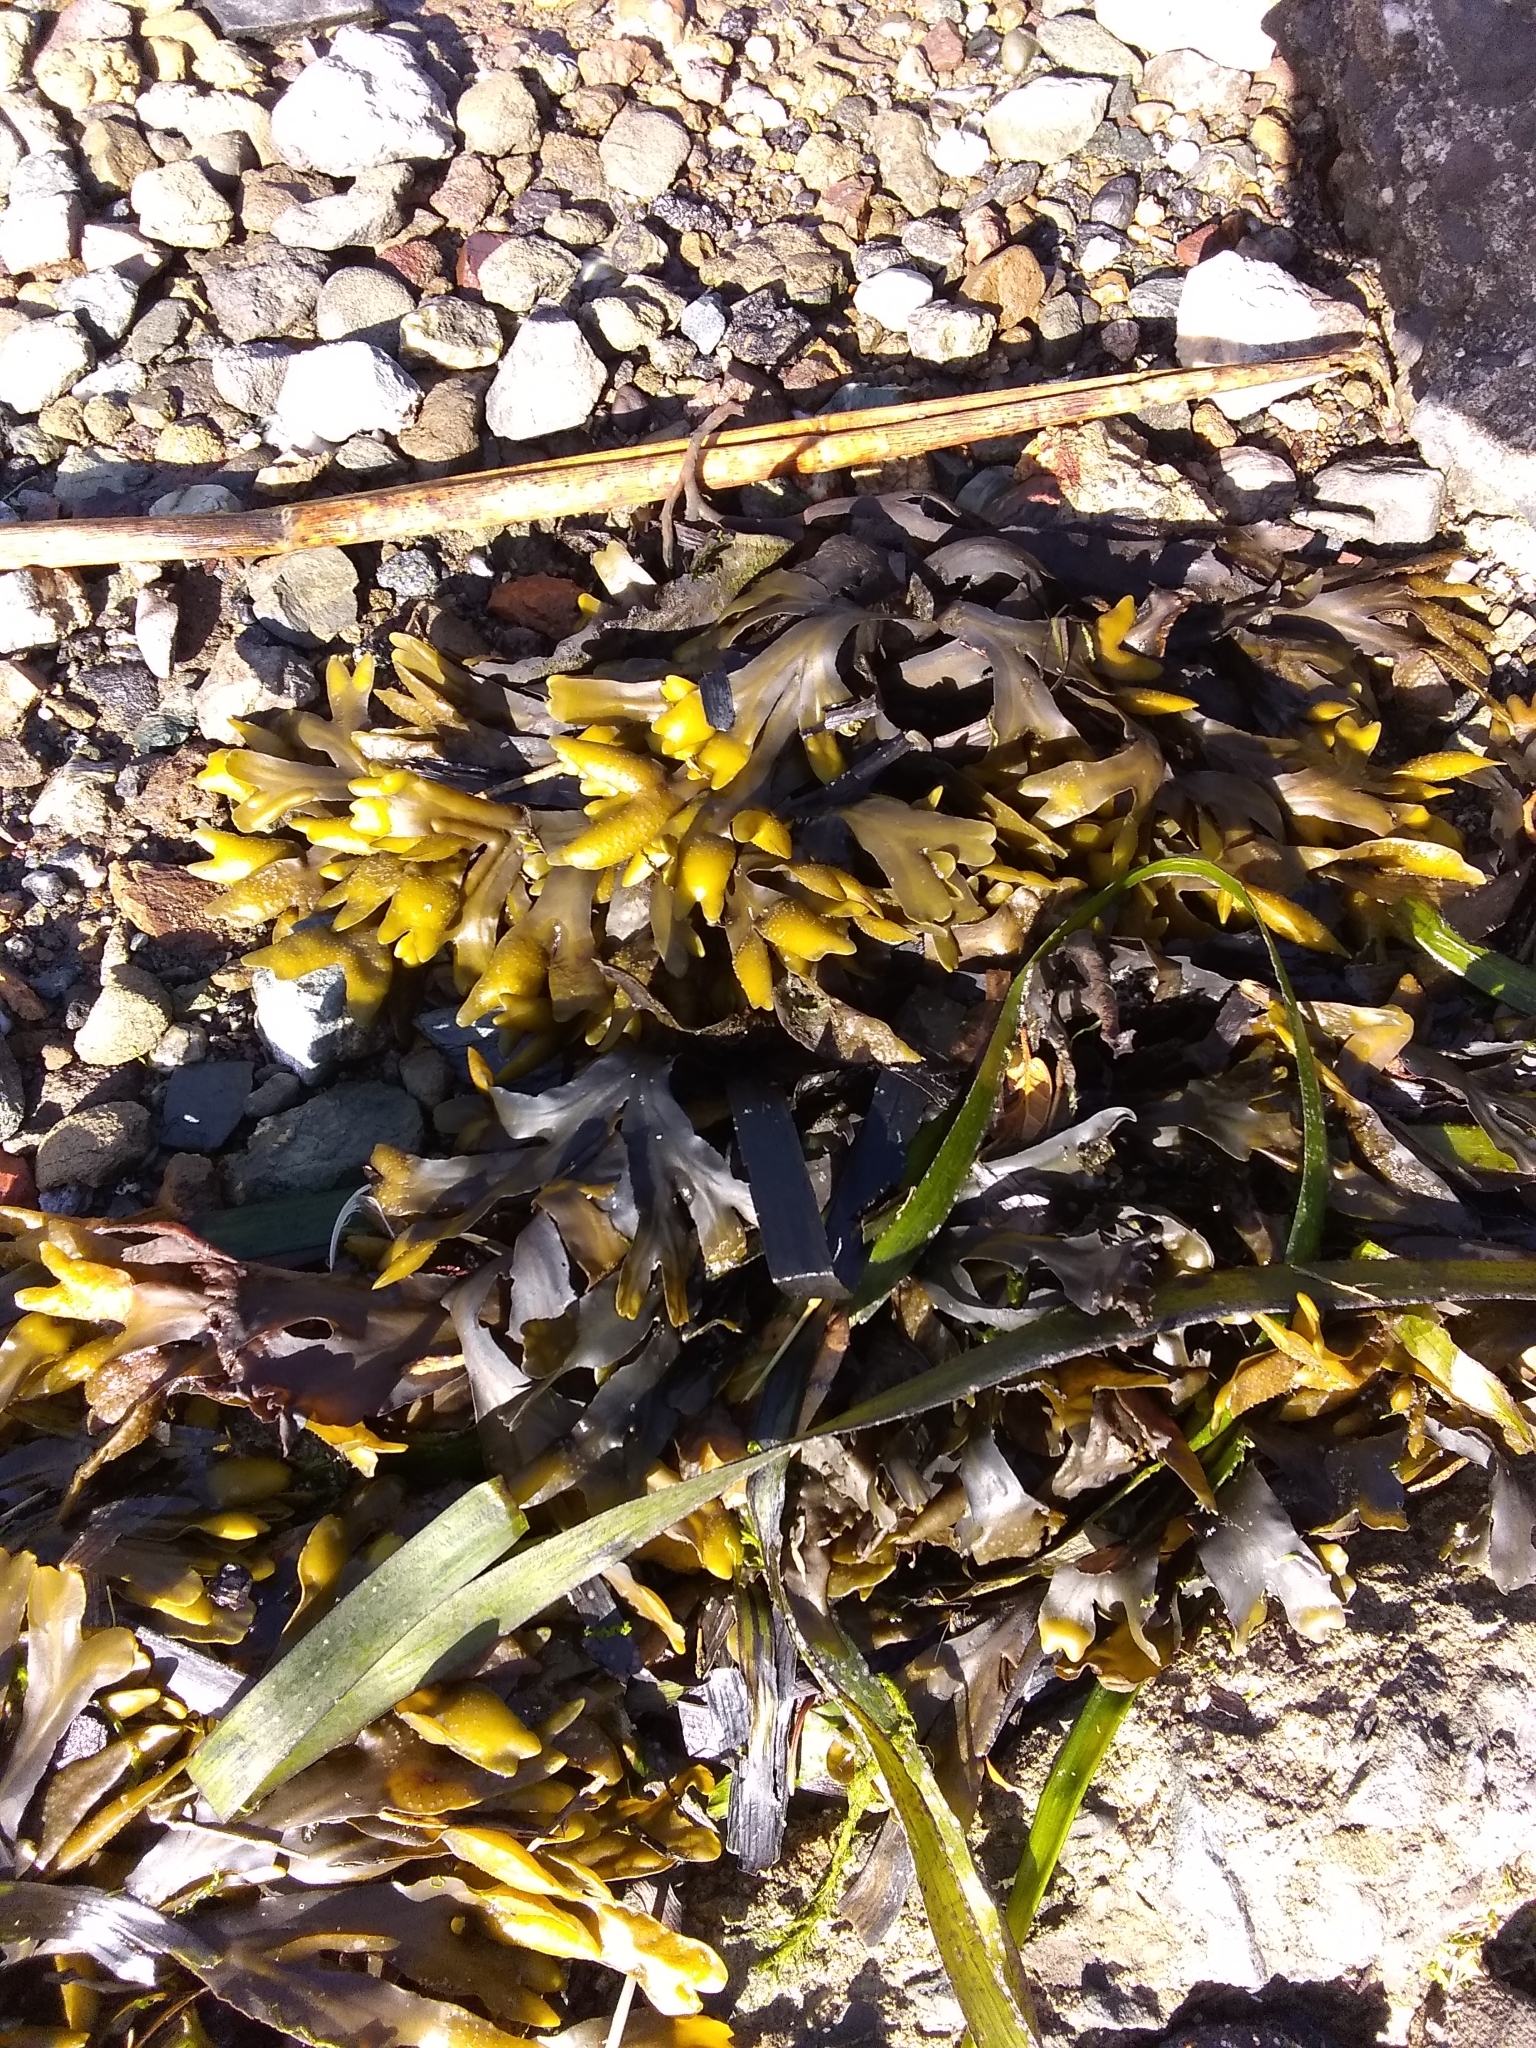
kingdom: Chromista
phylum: Ochrophyta
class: Phaeophyceae
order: Fucales
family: Fucaceae
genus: Fucus
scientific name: Fucus distichus
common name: Rockweed
